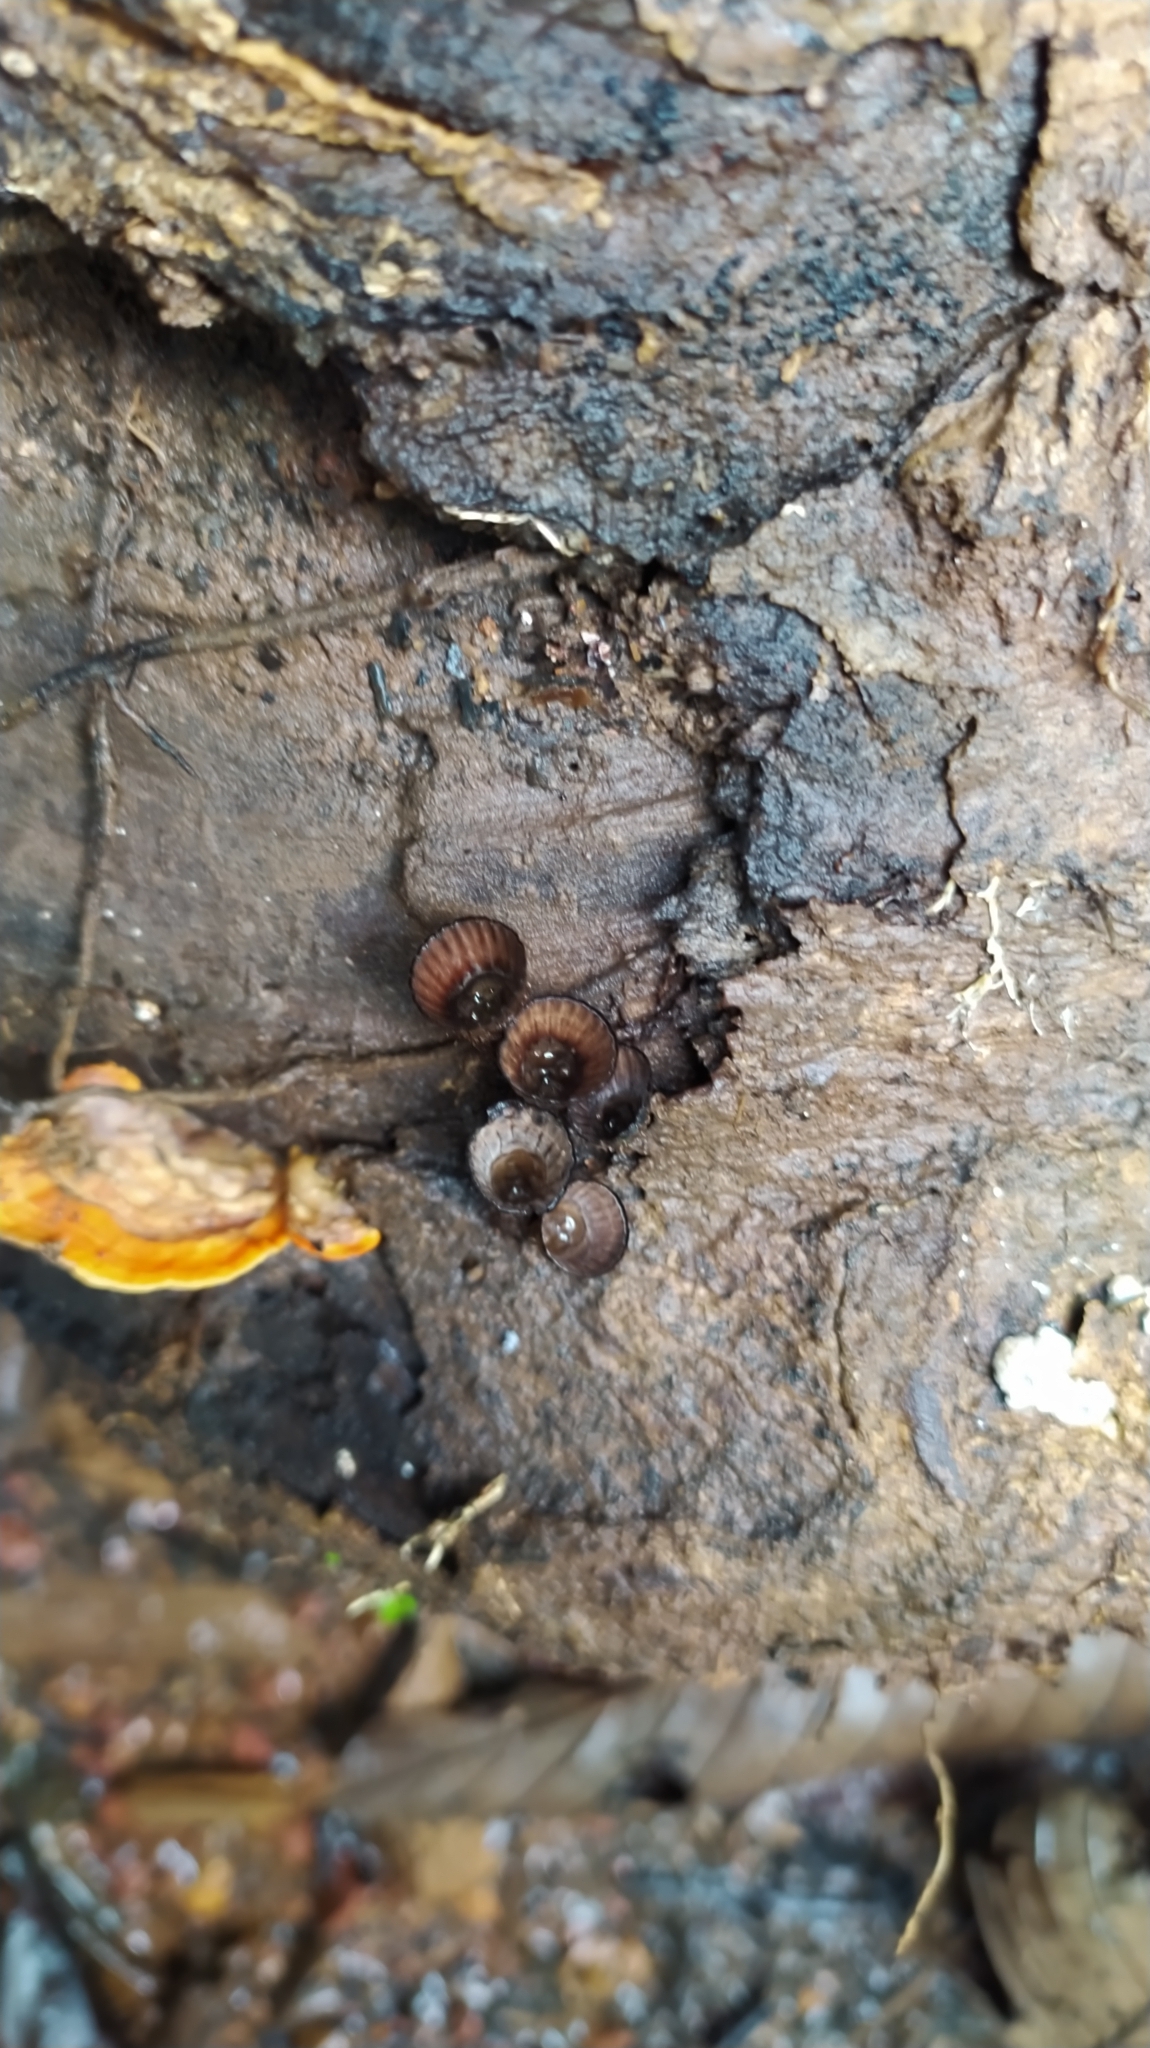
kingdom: Fungi
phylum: Basidiomycota
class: Agaricomycetes
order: Agaricales
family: Agaricaceae
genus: Cyathus
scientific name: Cyathus
